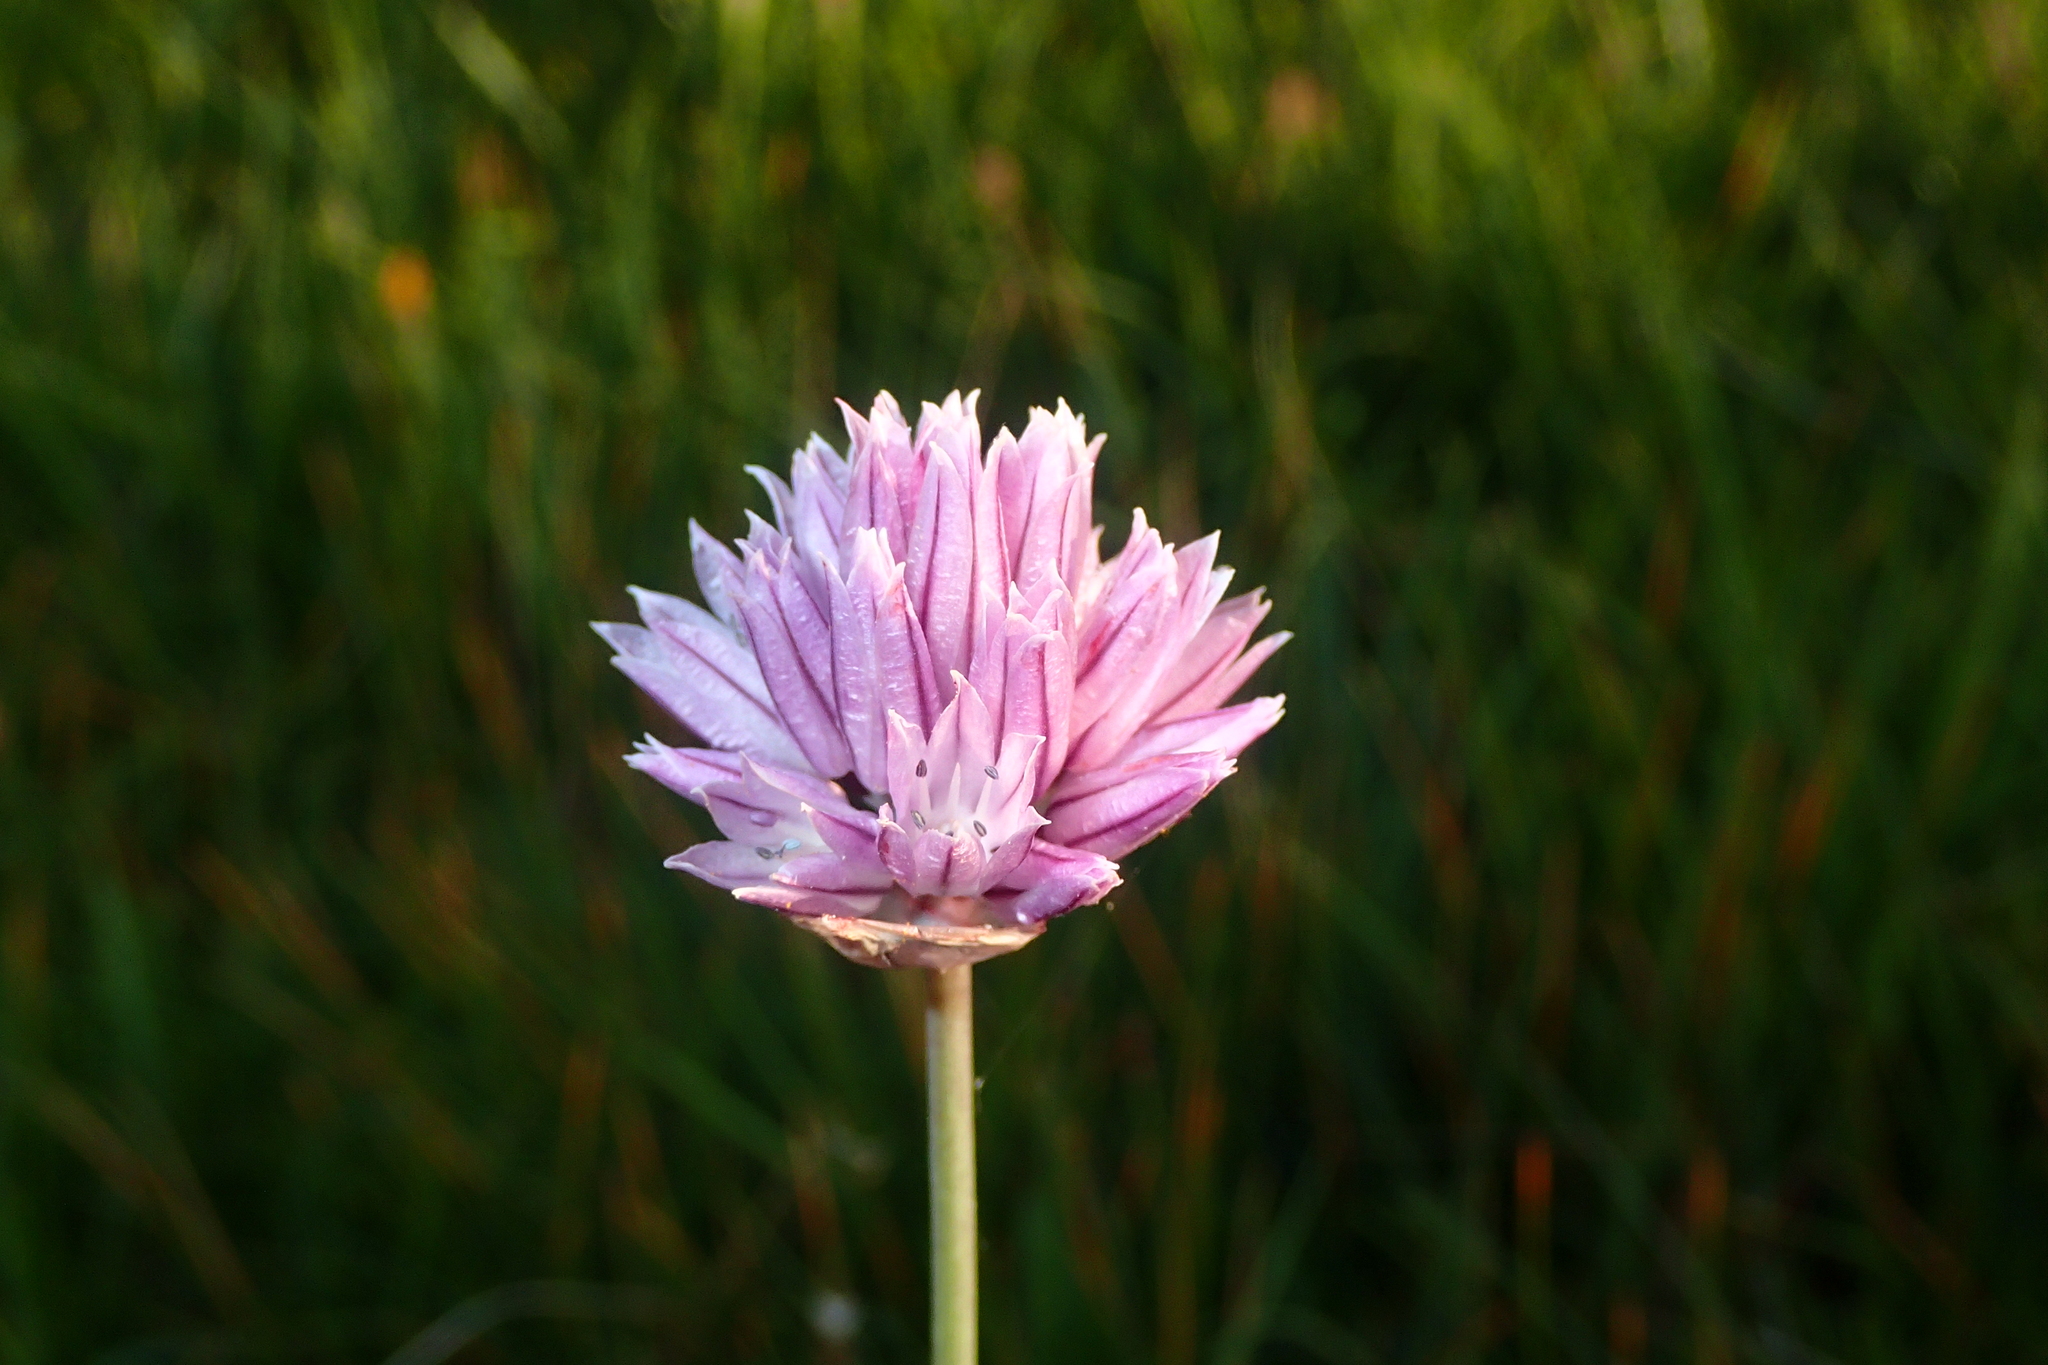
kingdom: Plantae
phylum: Tracheophyta
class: Liliopsida
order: Asparagales
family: Amaryllidaceae
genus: Allium
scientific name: Allium schoenoprasum
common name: Chives
